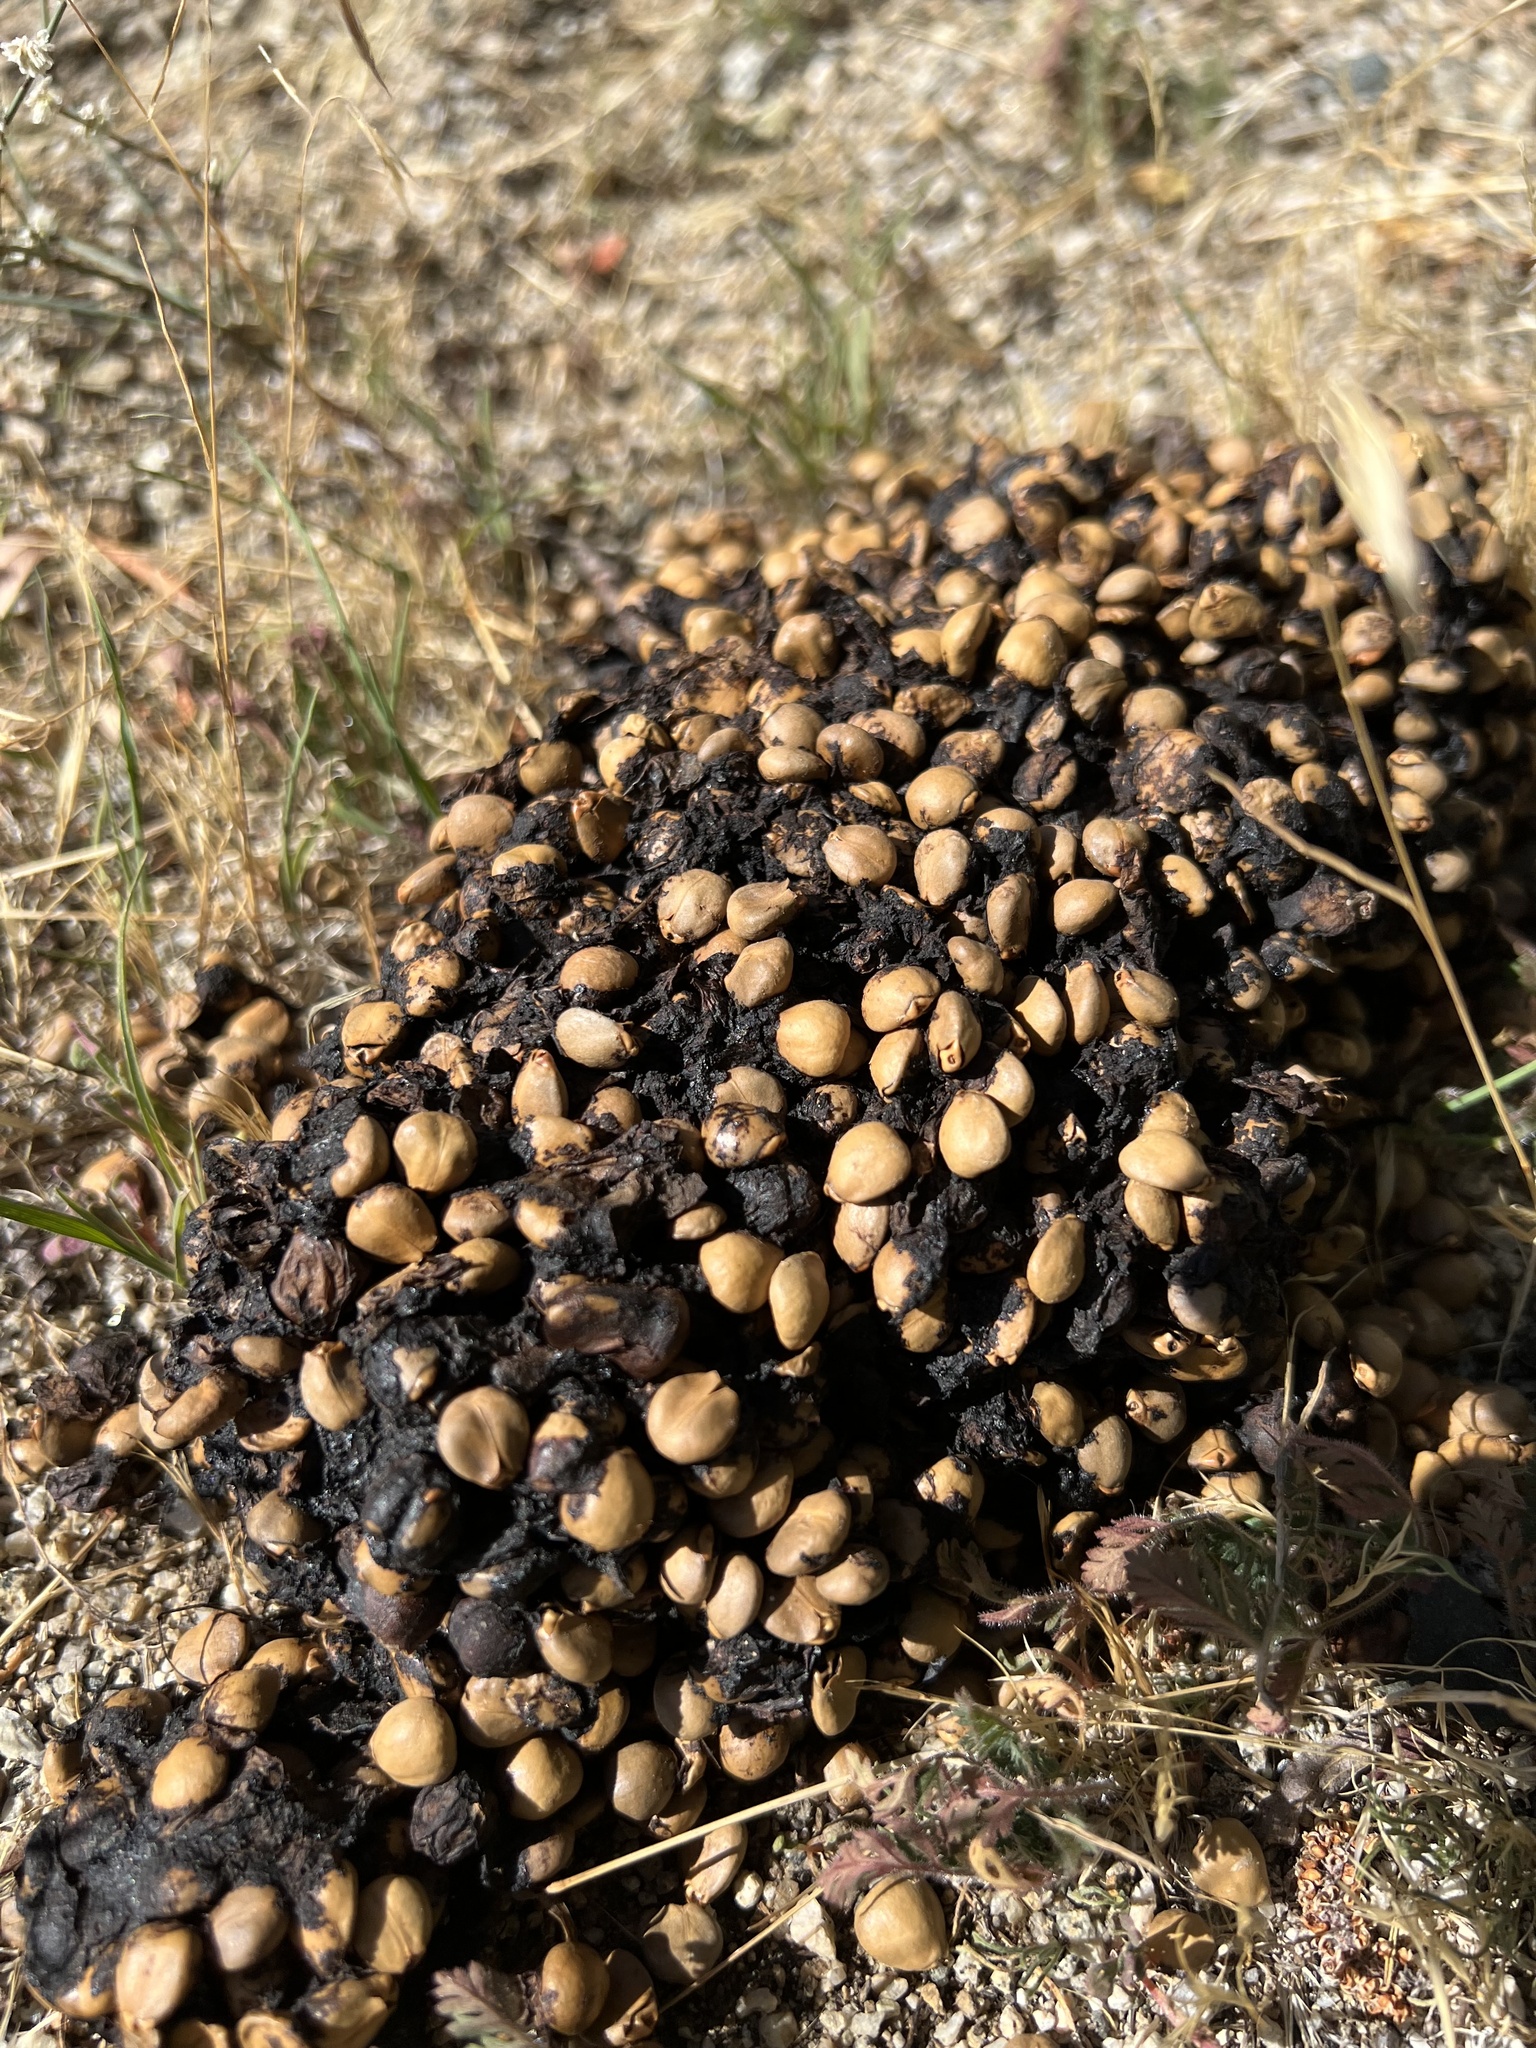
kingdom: Animalia
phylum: Chordata
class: Mammalia
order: Carnivora
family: Ursidae
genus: Ursus
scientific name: Ursus americanus
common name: American black bear
